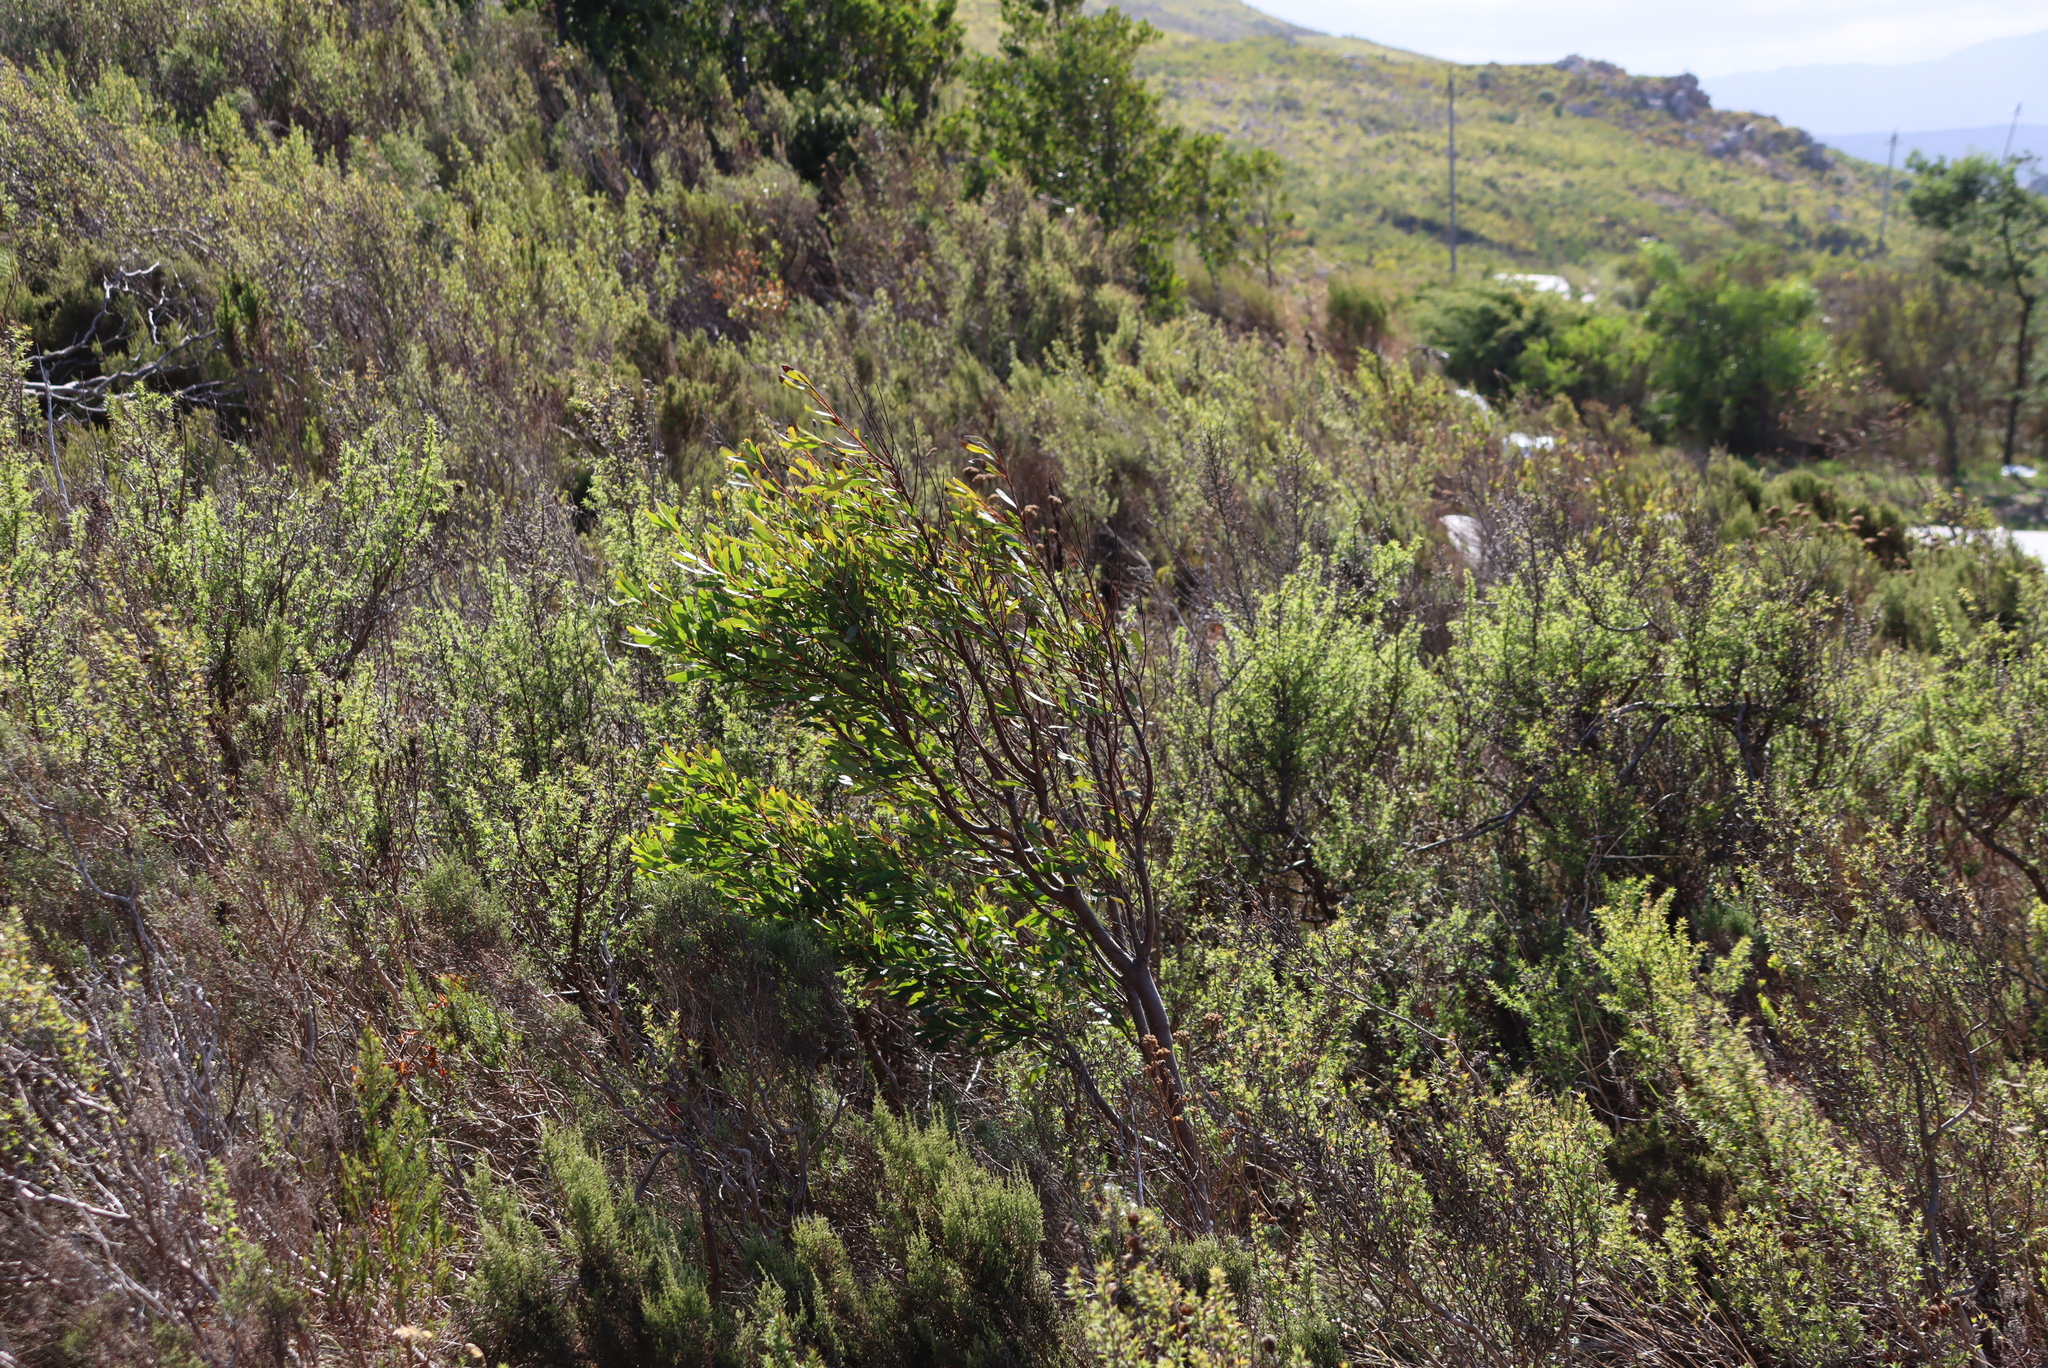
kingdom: Plantae
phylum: Tracheophyta
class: Magnoliopsida
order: Proteales
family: Proteaceae
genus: Hakea
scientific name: Hakea salicifolia
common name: Willow hakea
